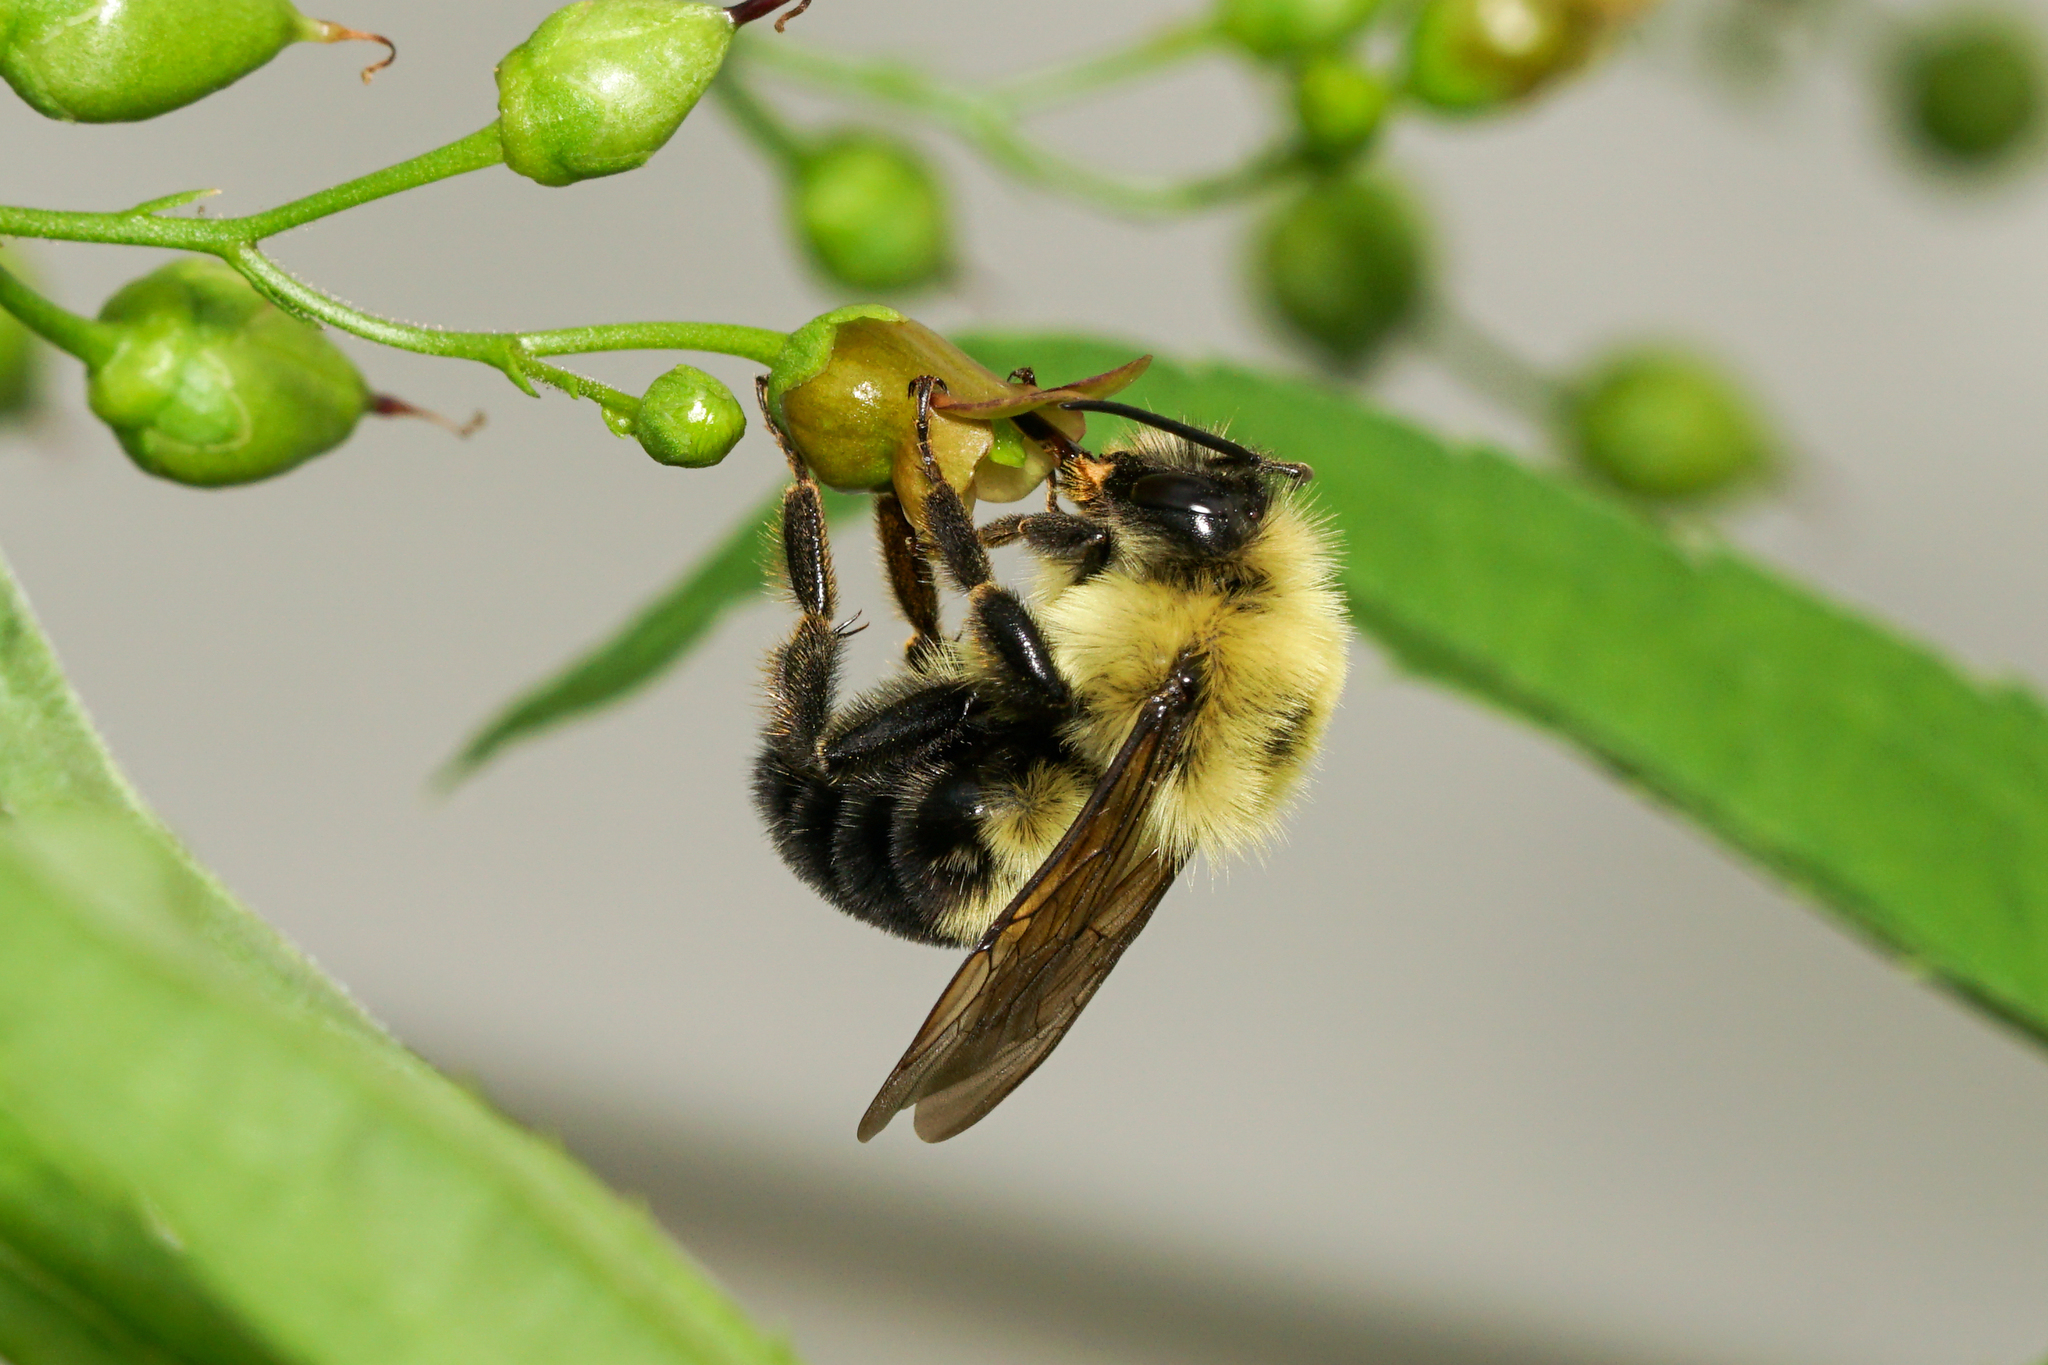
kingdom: Animalia
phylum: Arthropoda
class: Insecta
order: Hymenoptera
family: Apidae
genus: Bombus
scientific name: Bombus bimaculatus
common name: Two-spotted bumble bee
